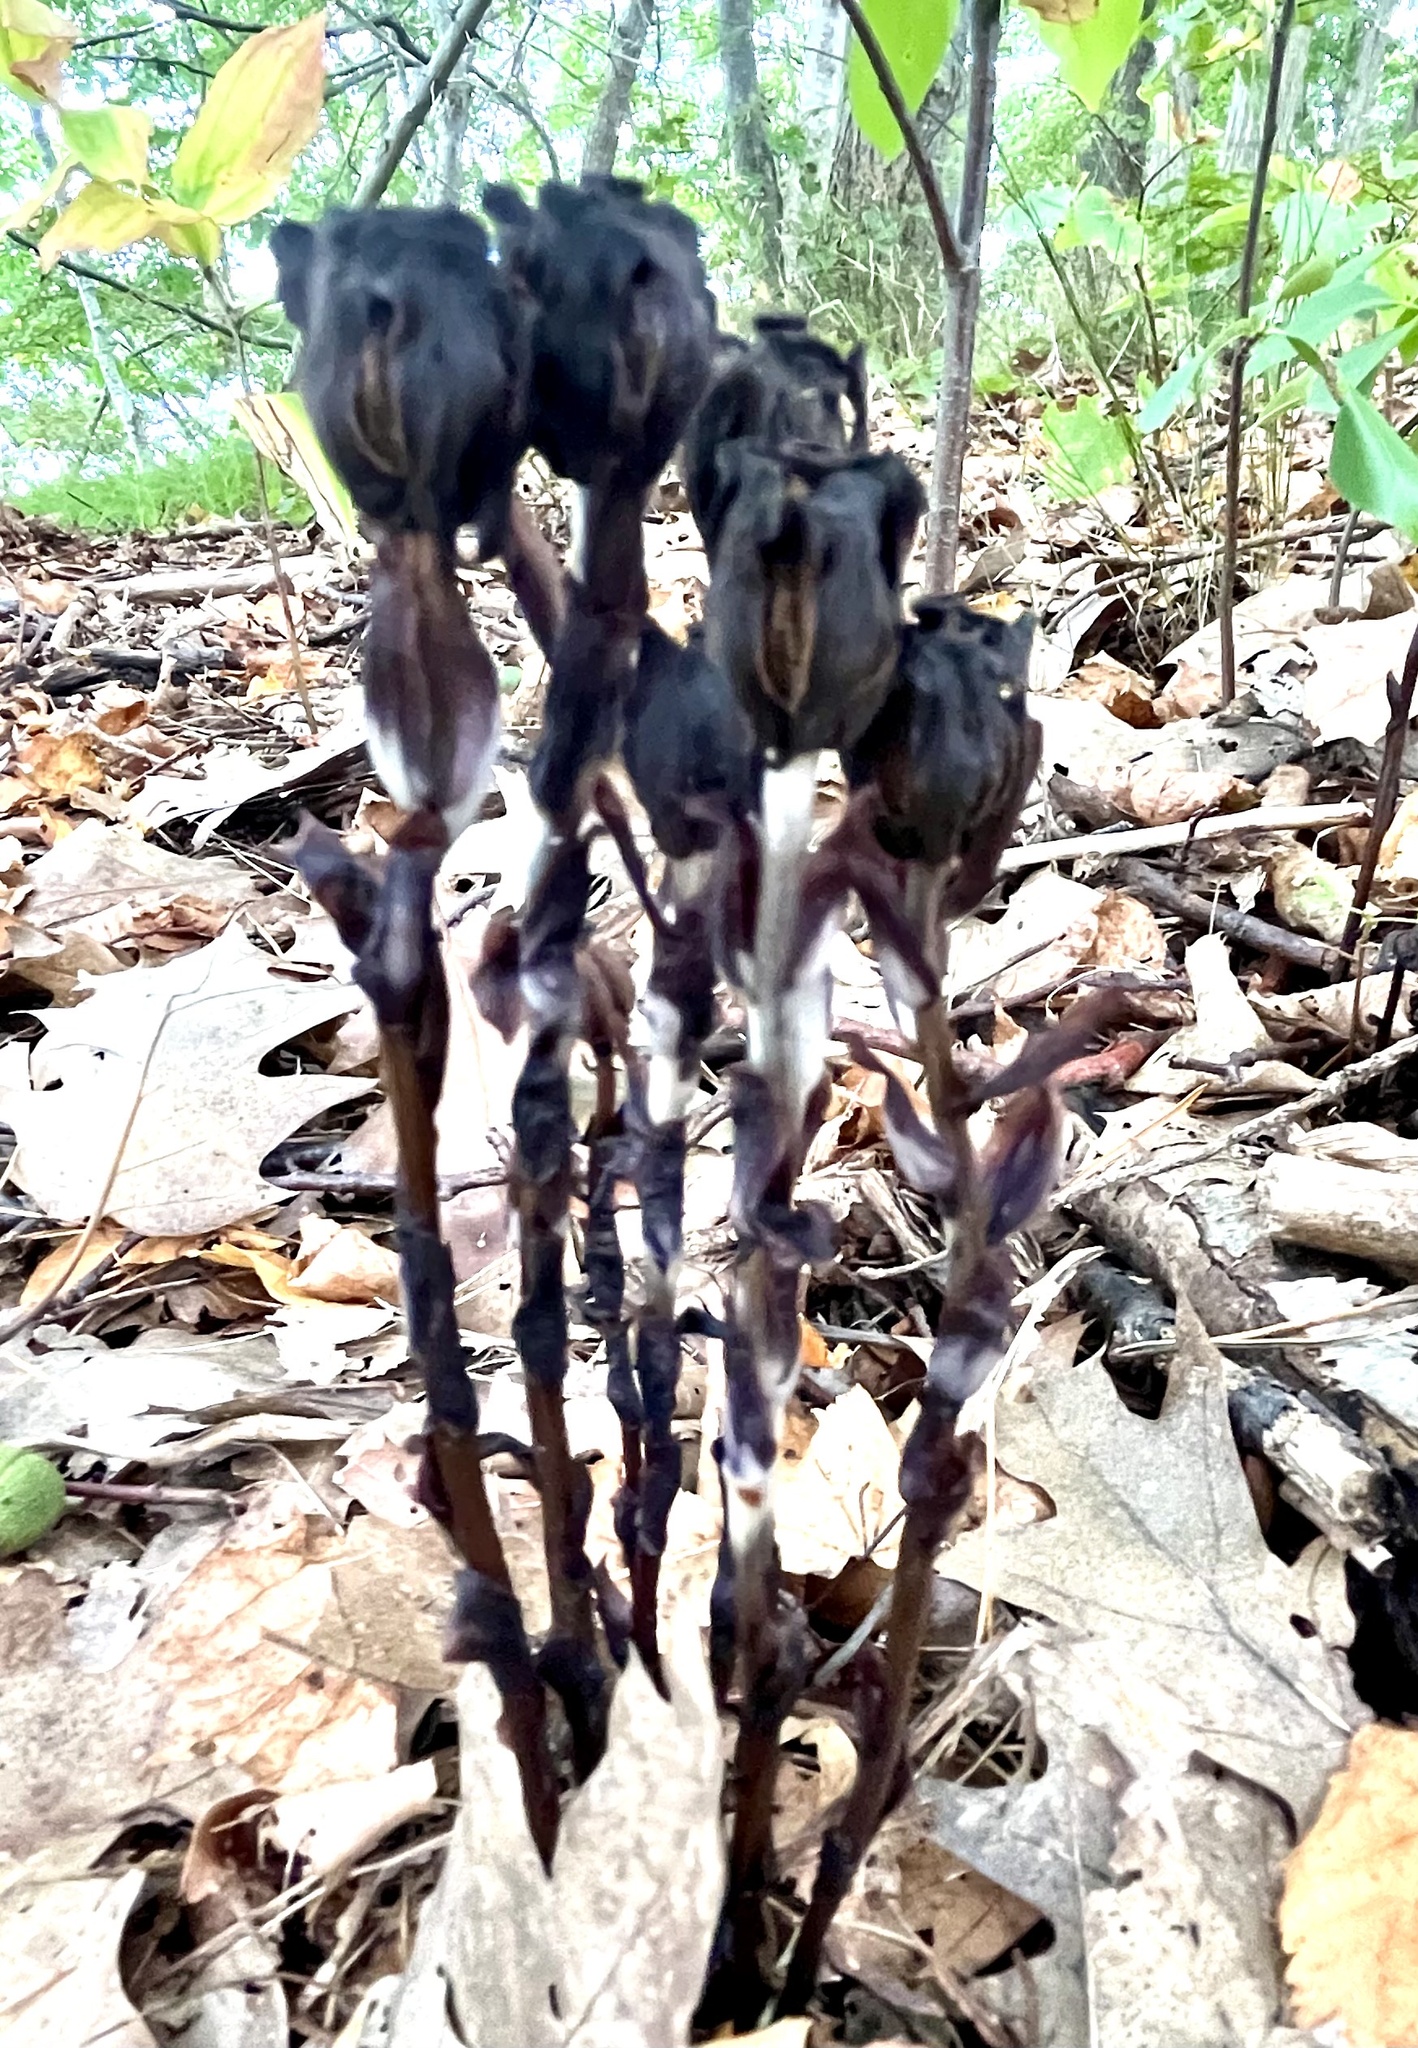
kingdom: Plantae
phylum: Tracheophyta
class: Magnoliopsida
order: Ericales
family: Ericaceae
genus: Monotropa
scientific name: Monotropa uniflora
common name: Convulsion root
